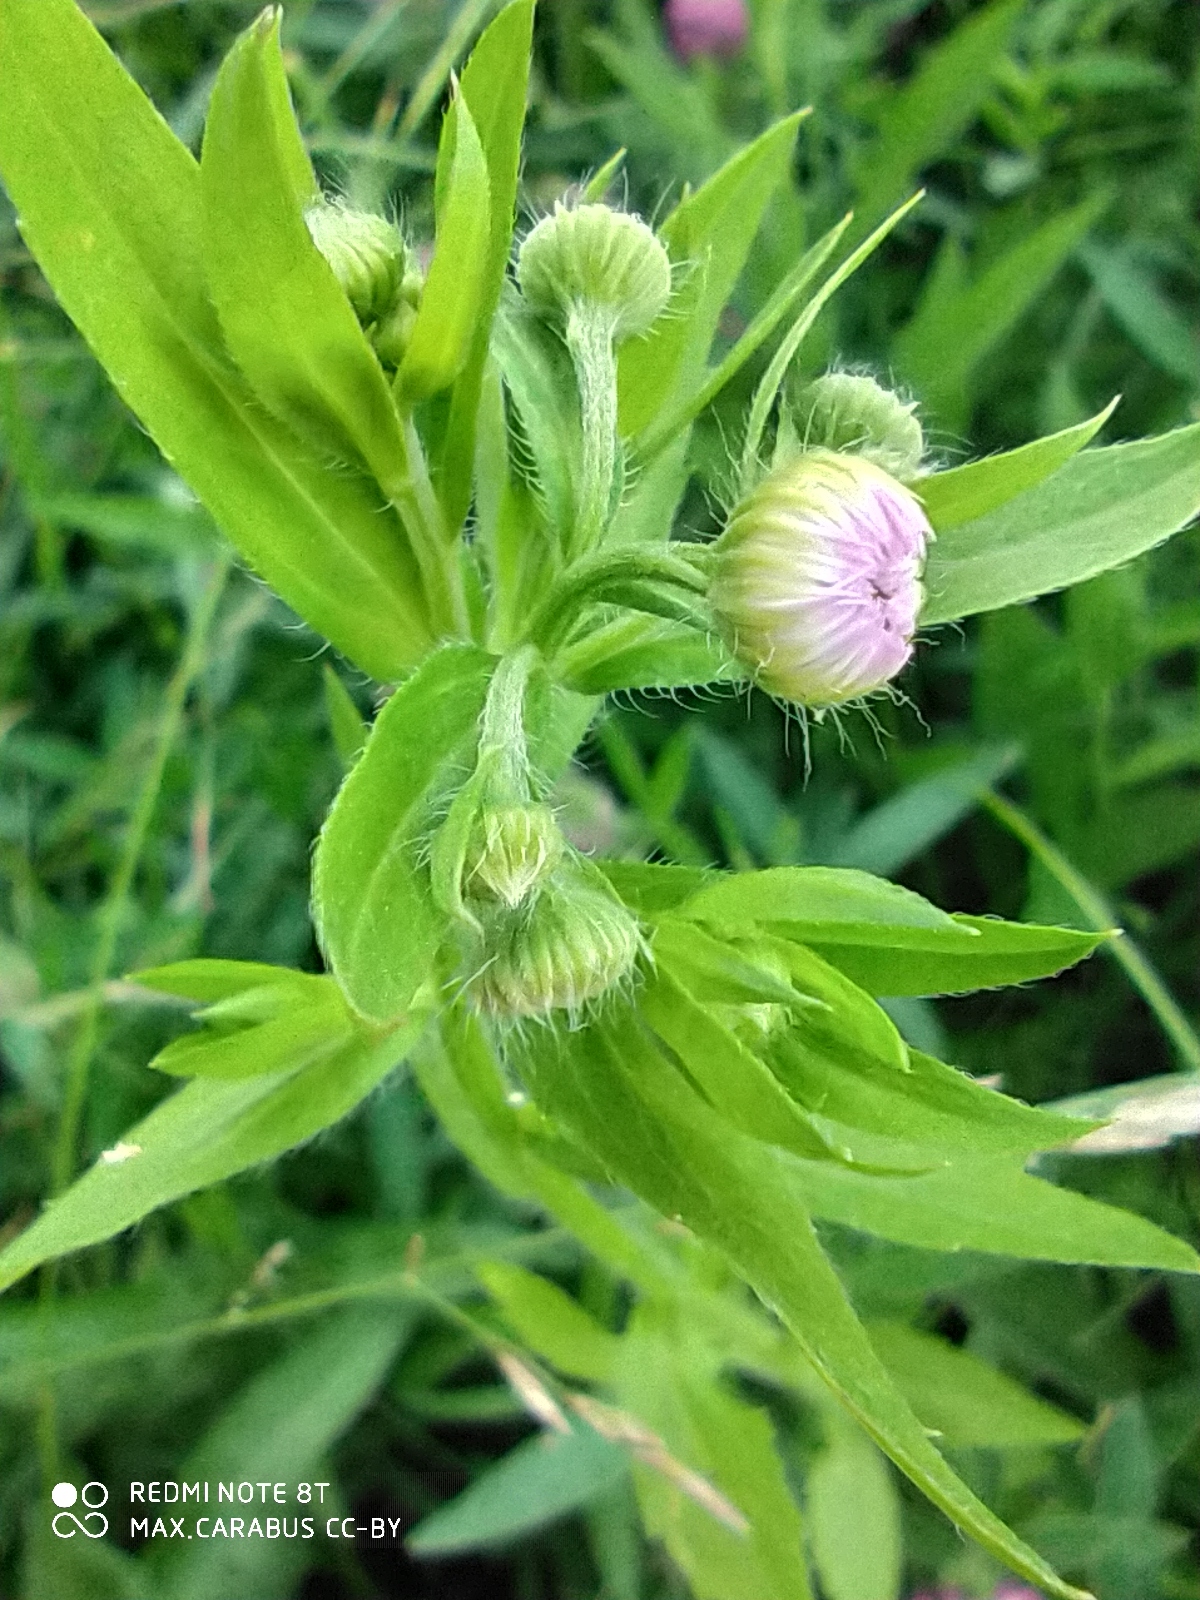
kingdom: Plantae
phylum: Tracheophyta
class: Magnoliopsida
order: Asterales
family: Asteraceae
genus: Erigeron
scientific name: Erigeron annuus
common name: Tall fleabane
